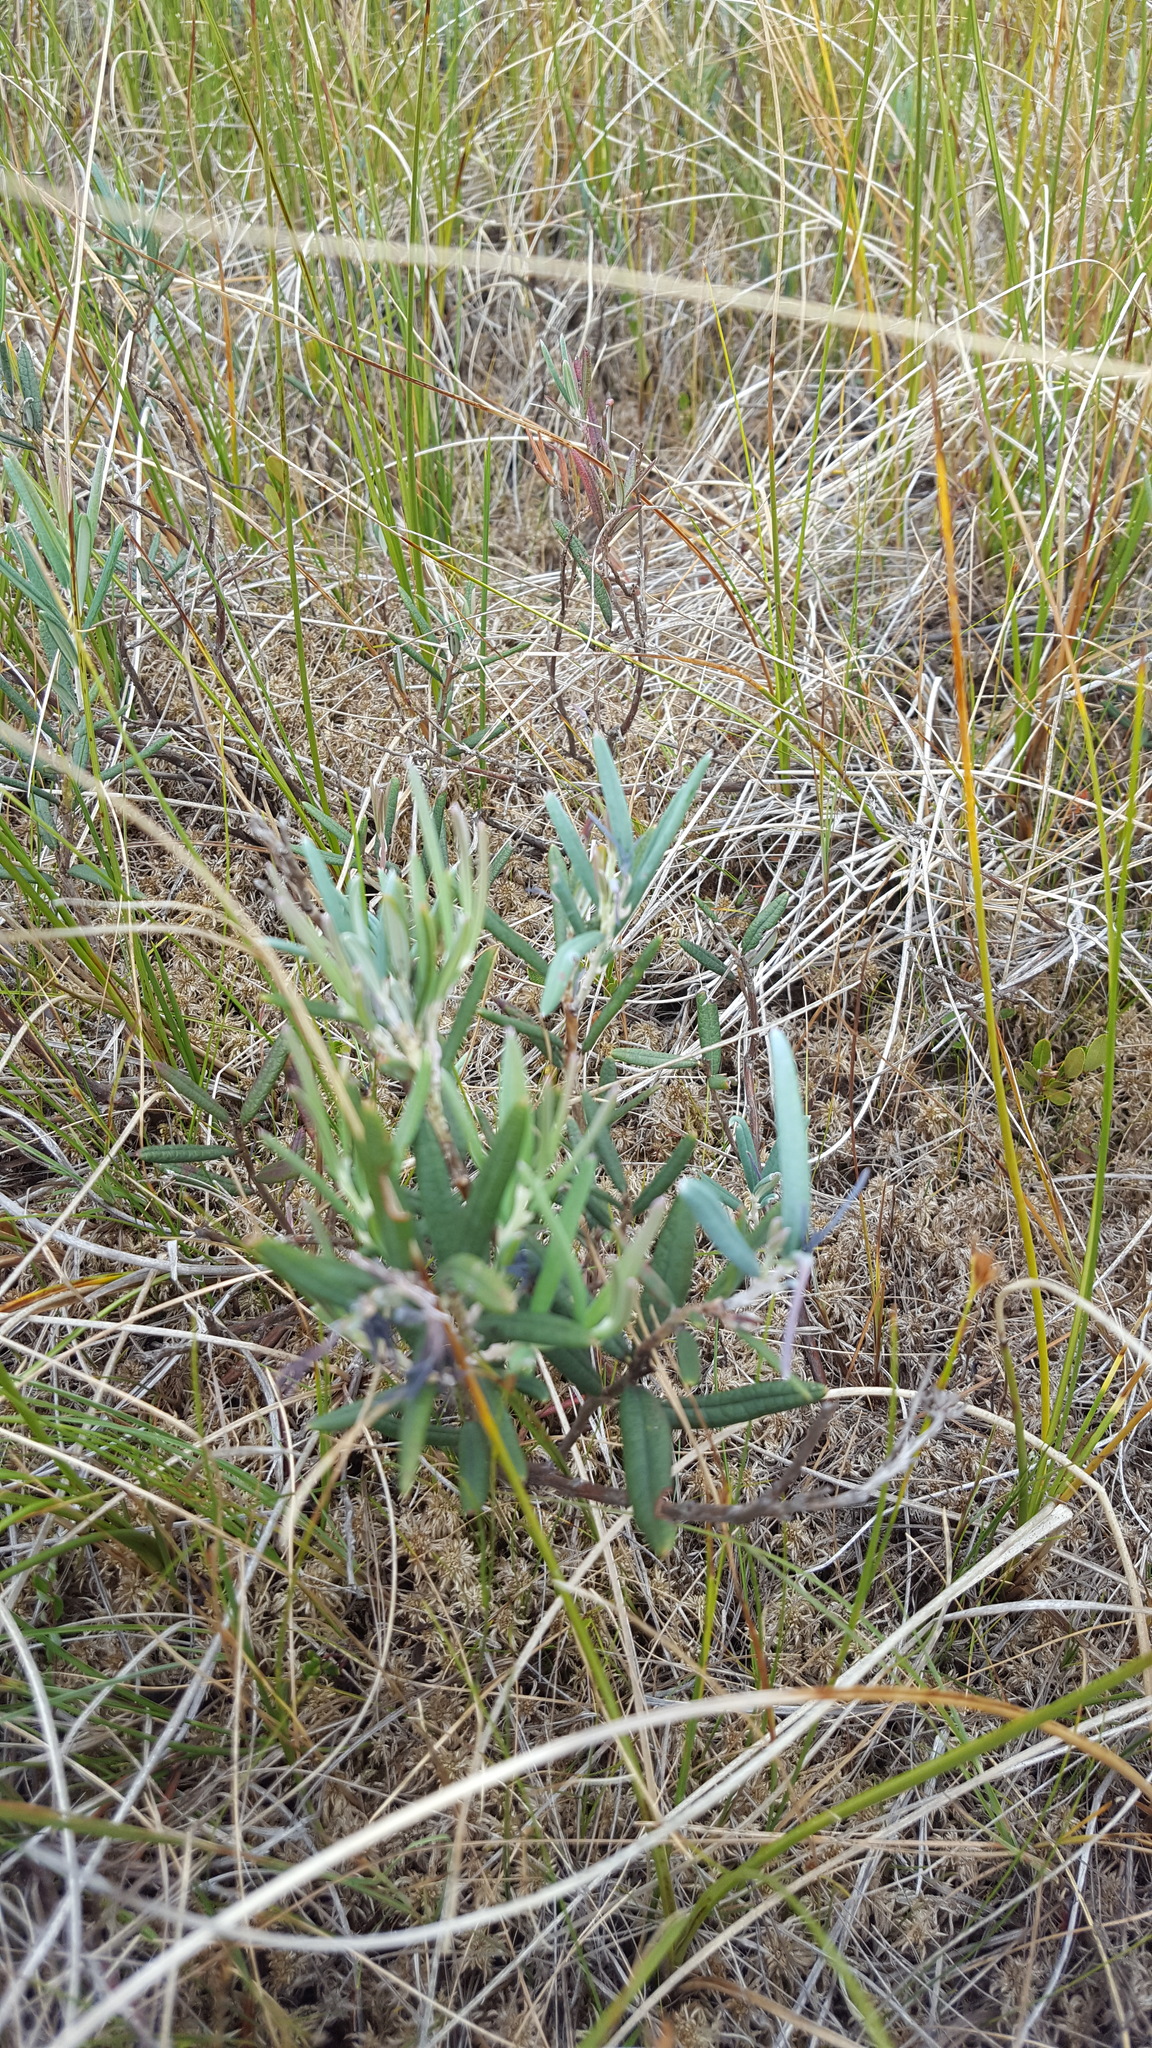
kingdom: Plantae
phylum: Tracheophyta
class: Magnoliopsida
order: Ericales
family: Ericaceae
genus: Andromeda
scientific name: Andromeda polifolia
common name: Bog-rosemary
